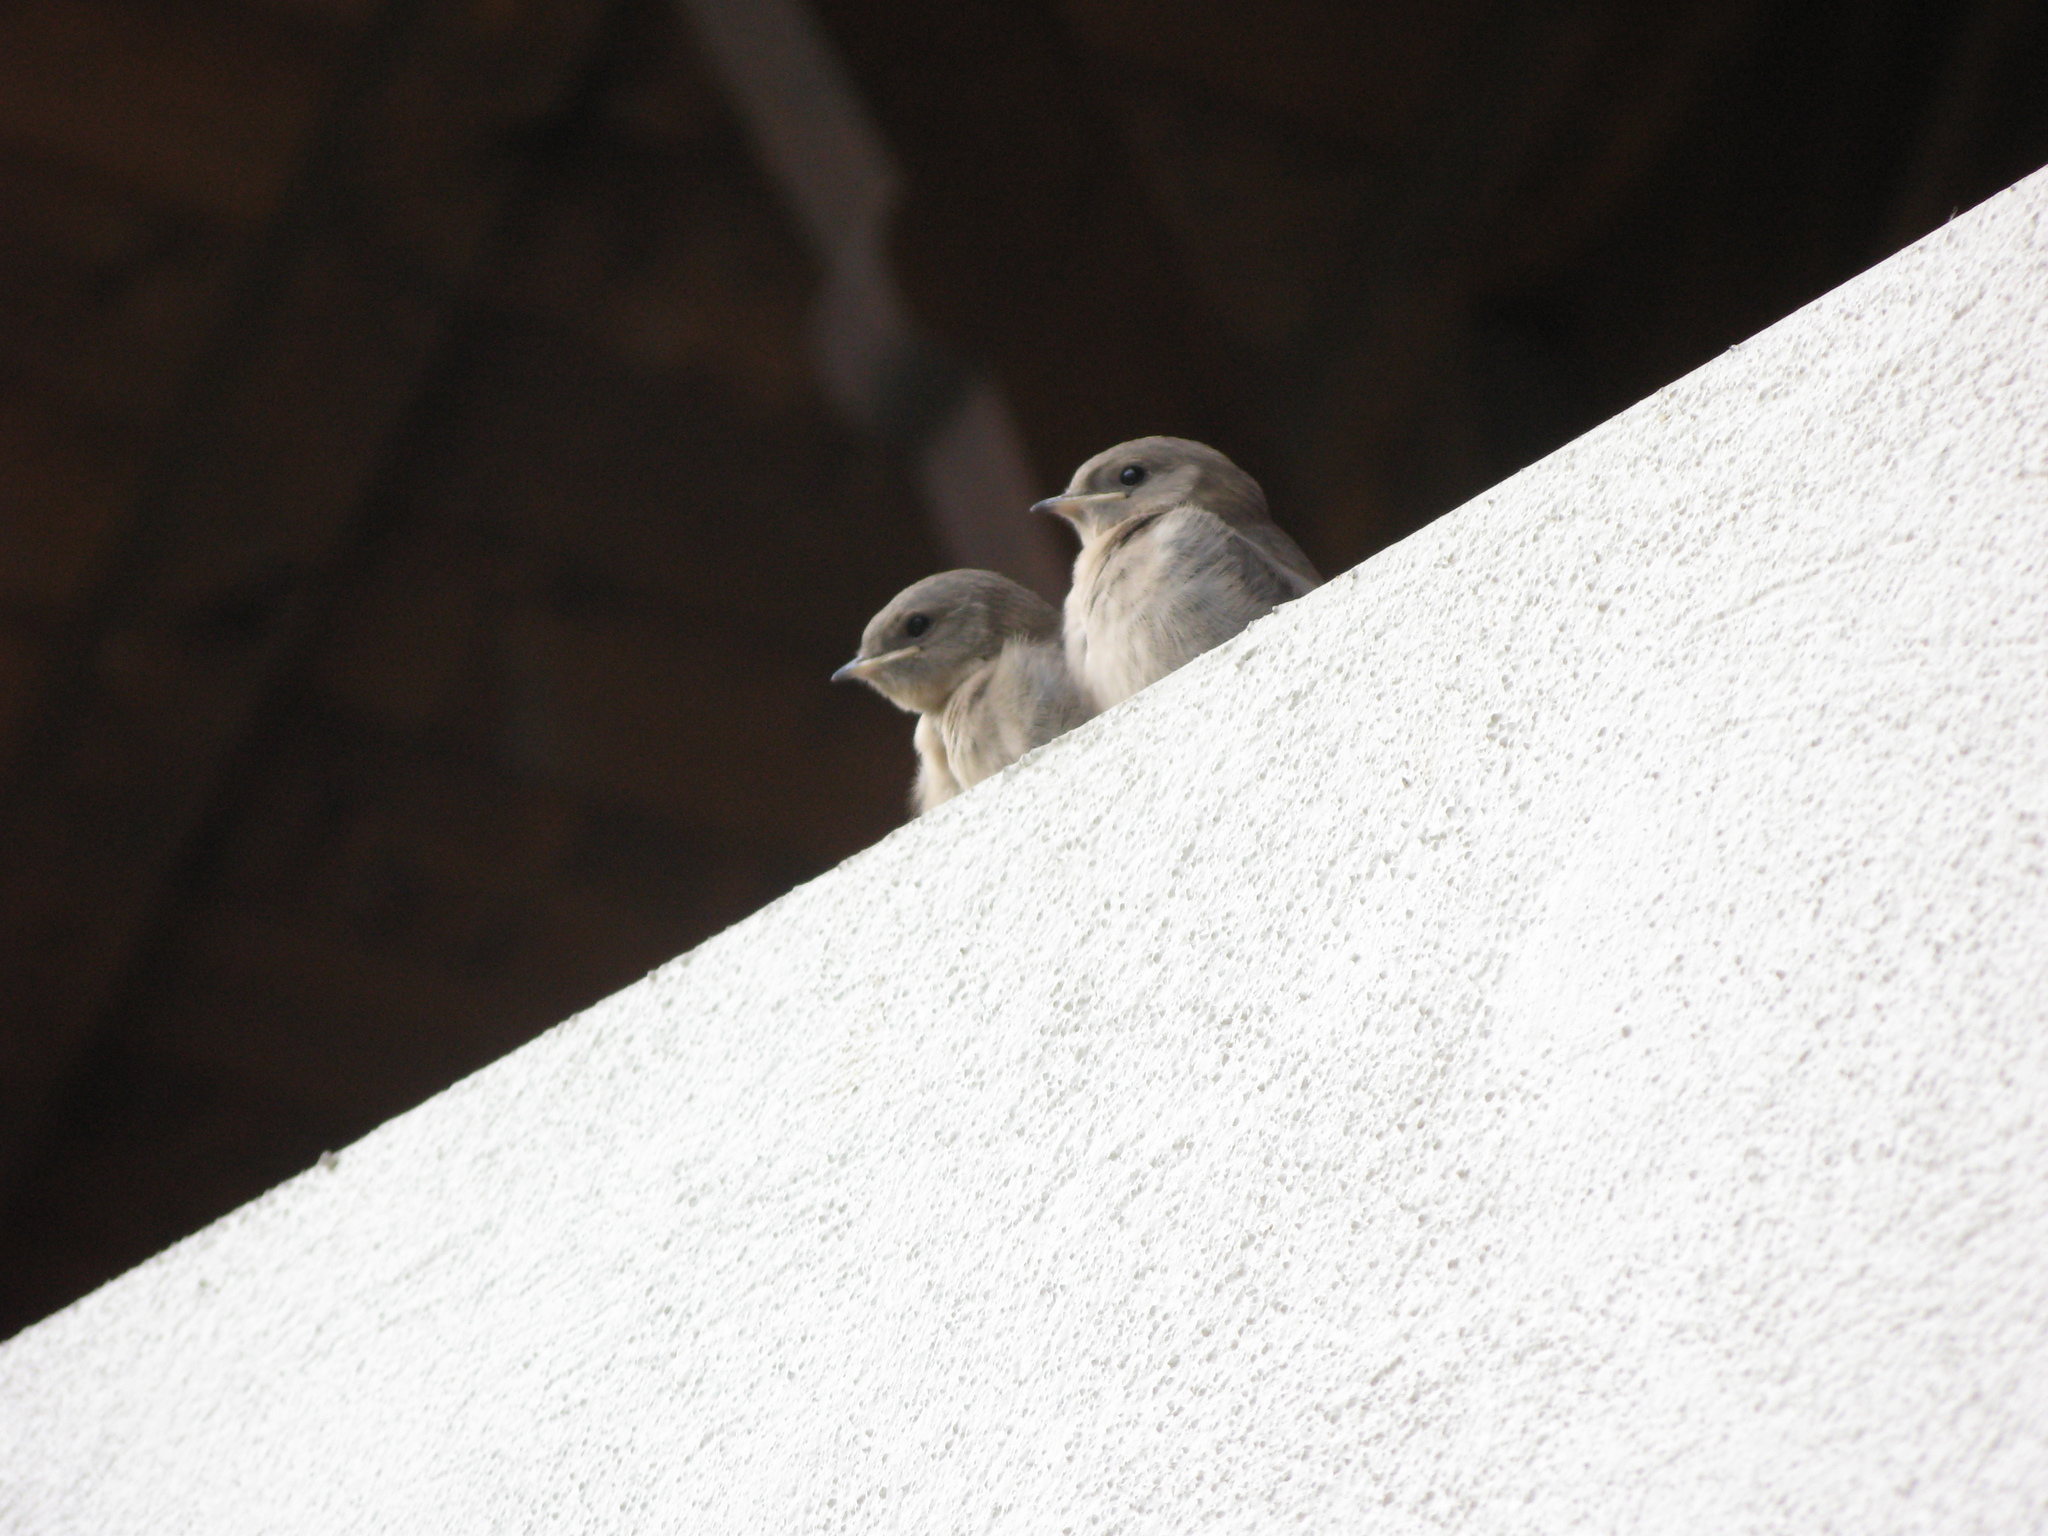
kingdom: Animalia
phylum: Chordata
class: Aves
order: Passeriformes
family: Hirundinidae
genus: Ptyonoprogne
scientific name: Ptyonoprogne rupestris
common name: Eurasian crag martin
